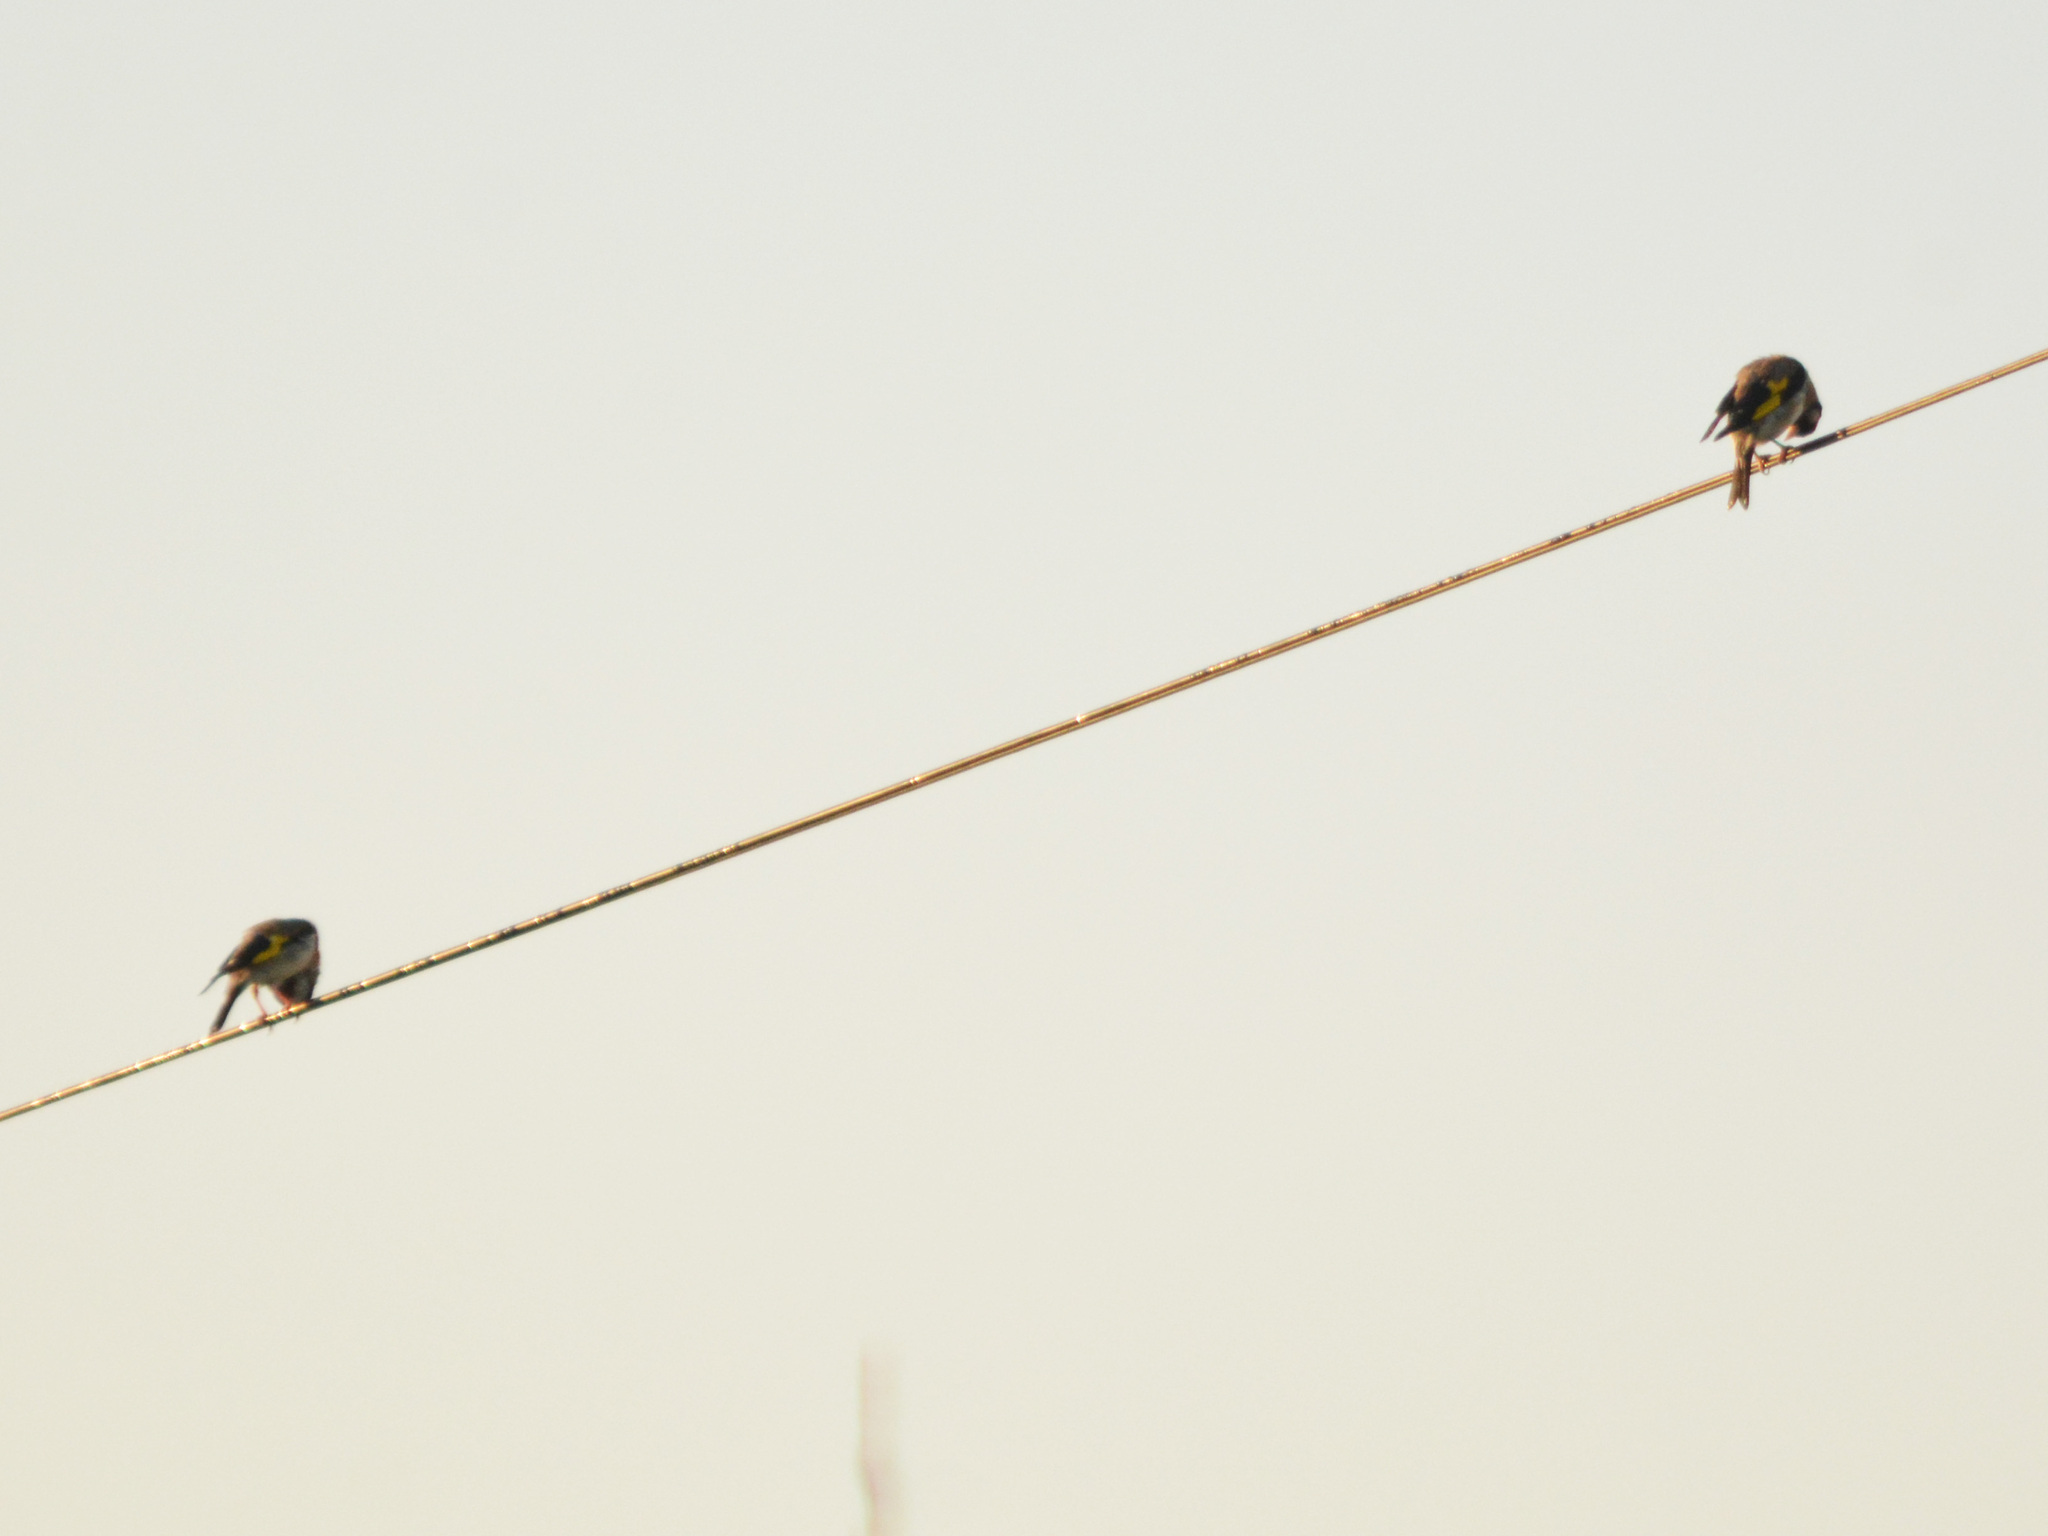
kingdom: Animalia
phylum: Chordata
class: Aves
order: Passeriformes
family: Fringillidae
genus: Carduelis
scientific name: Carduelis carduelis
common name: European goldfinch
